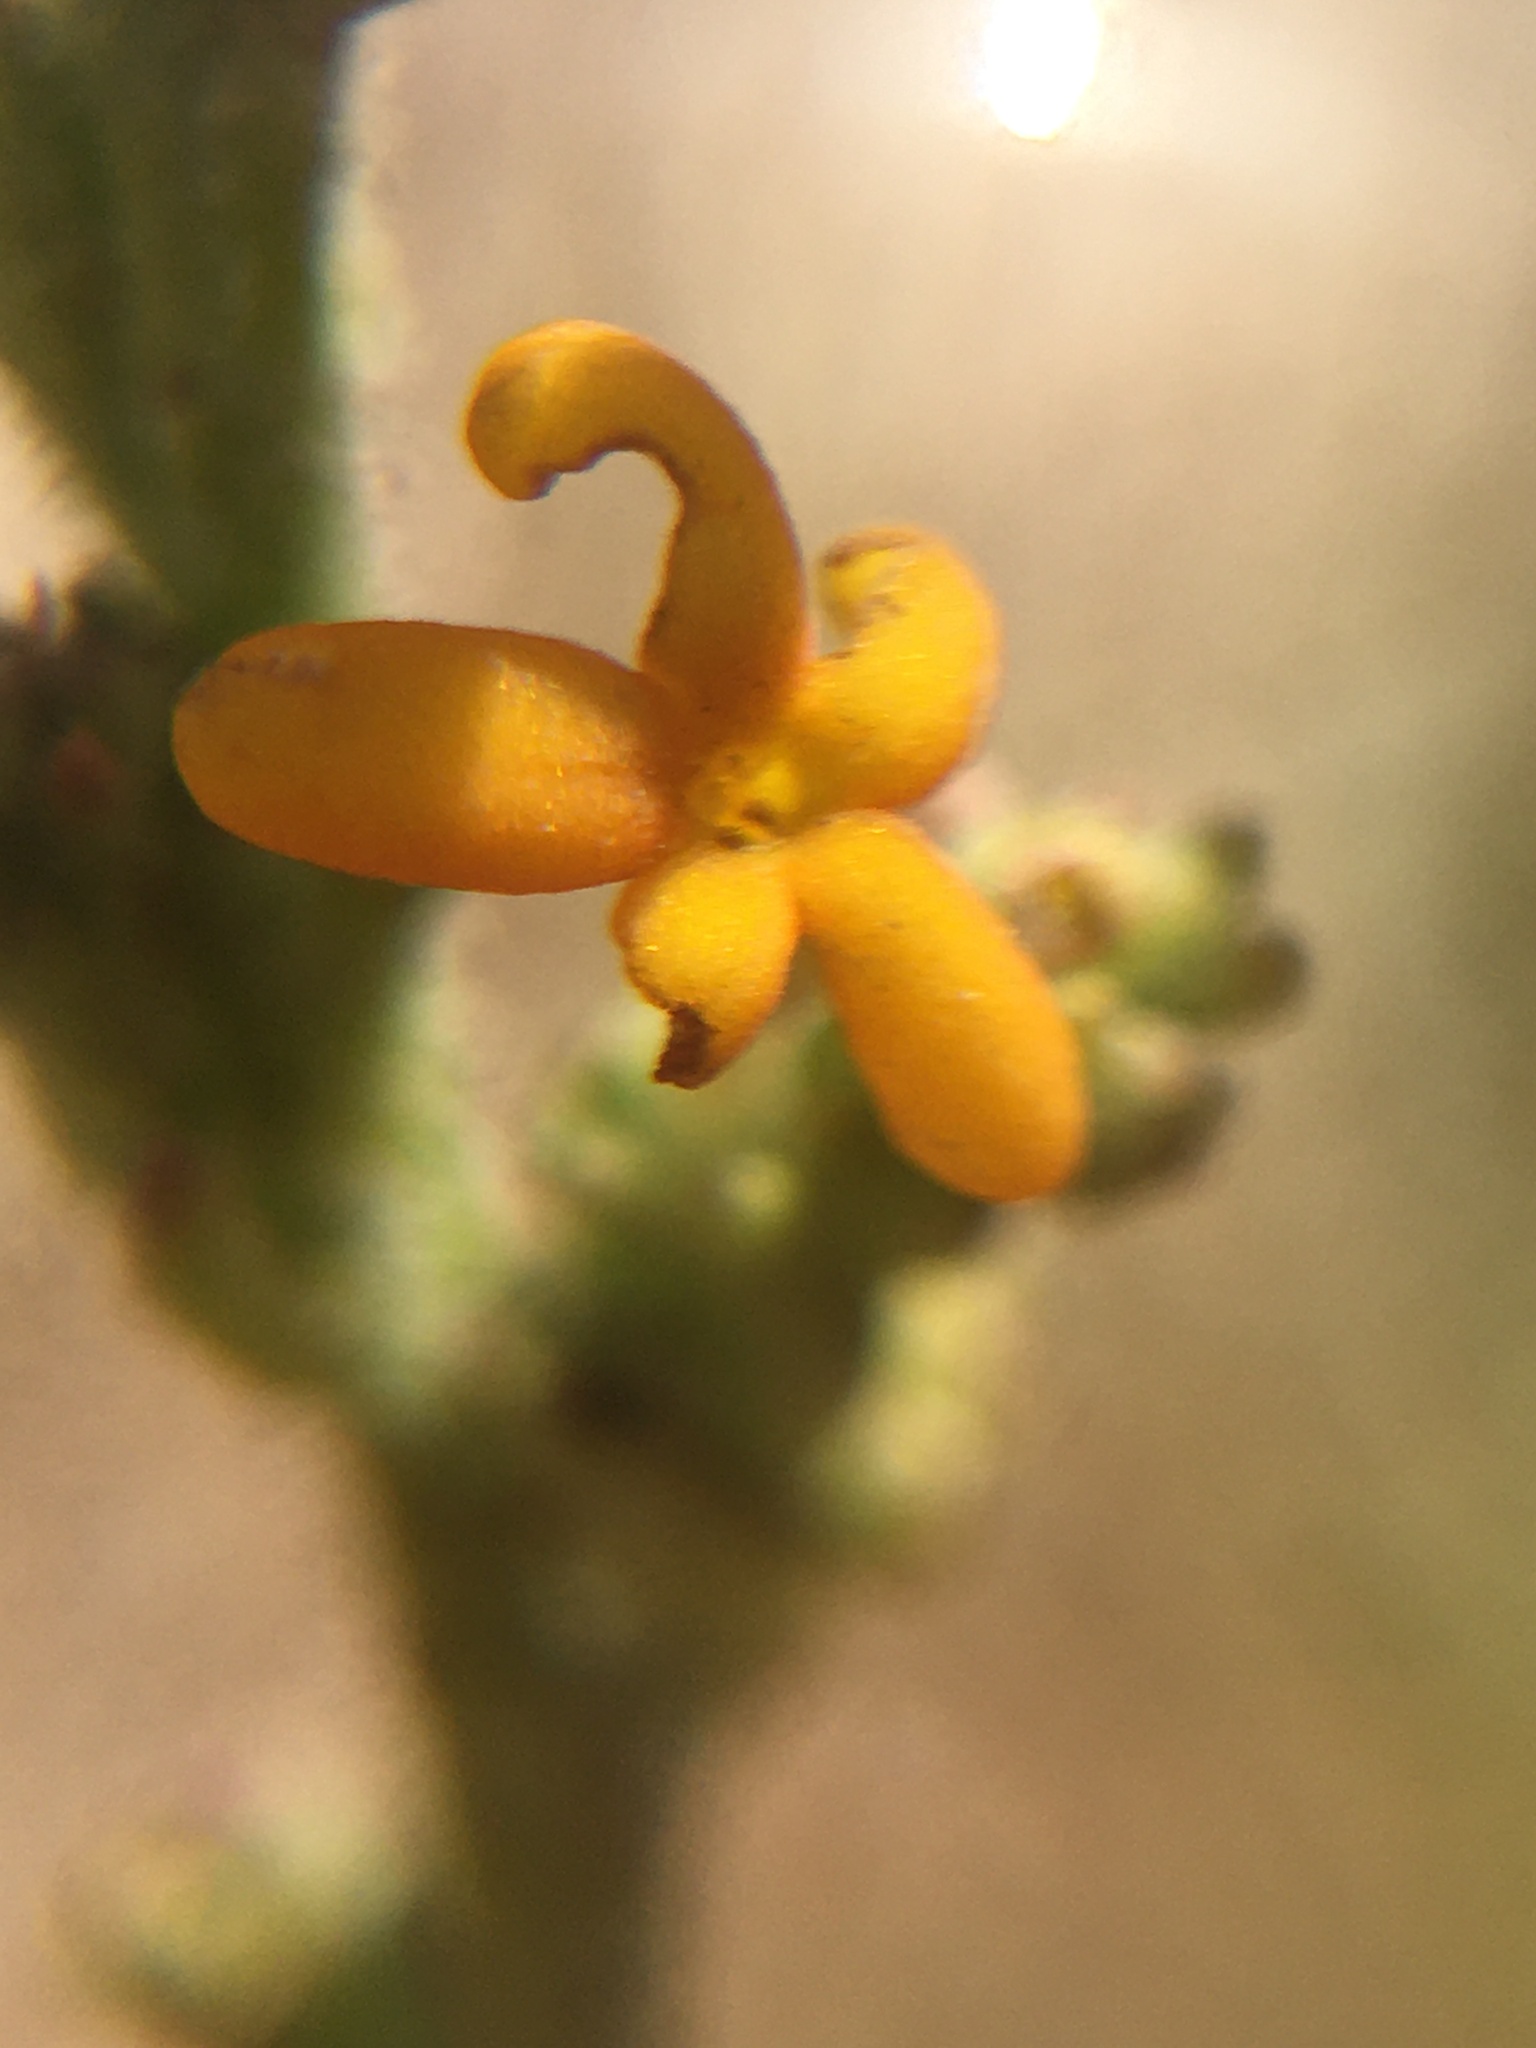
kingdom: Plantae
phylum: Tracheophyta
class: Magnoliopsida
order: Lamiales
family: Scrophulariaceae
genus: Manulea
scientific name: Manulea tomentosa
